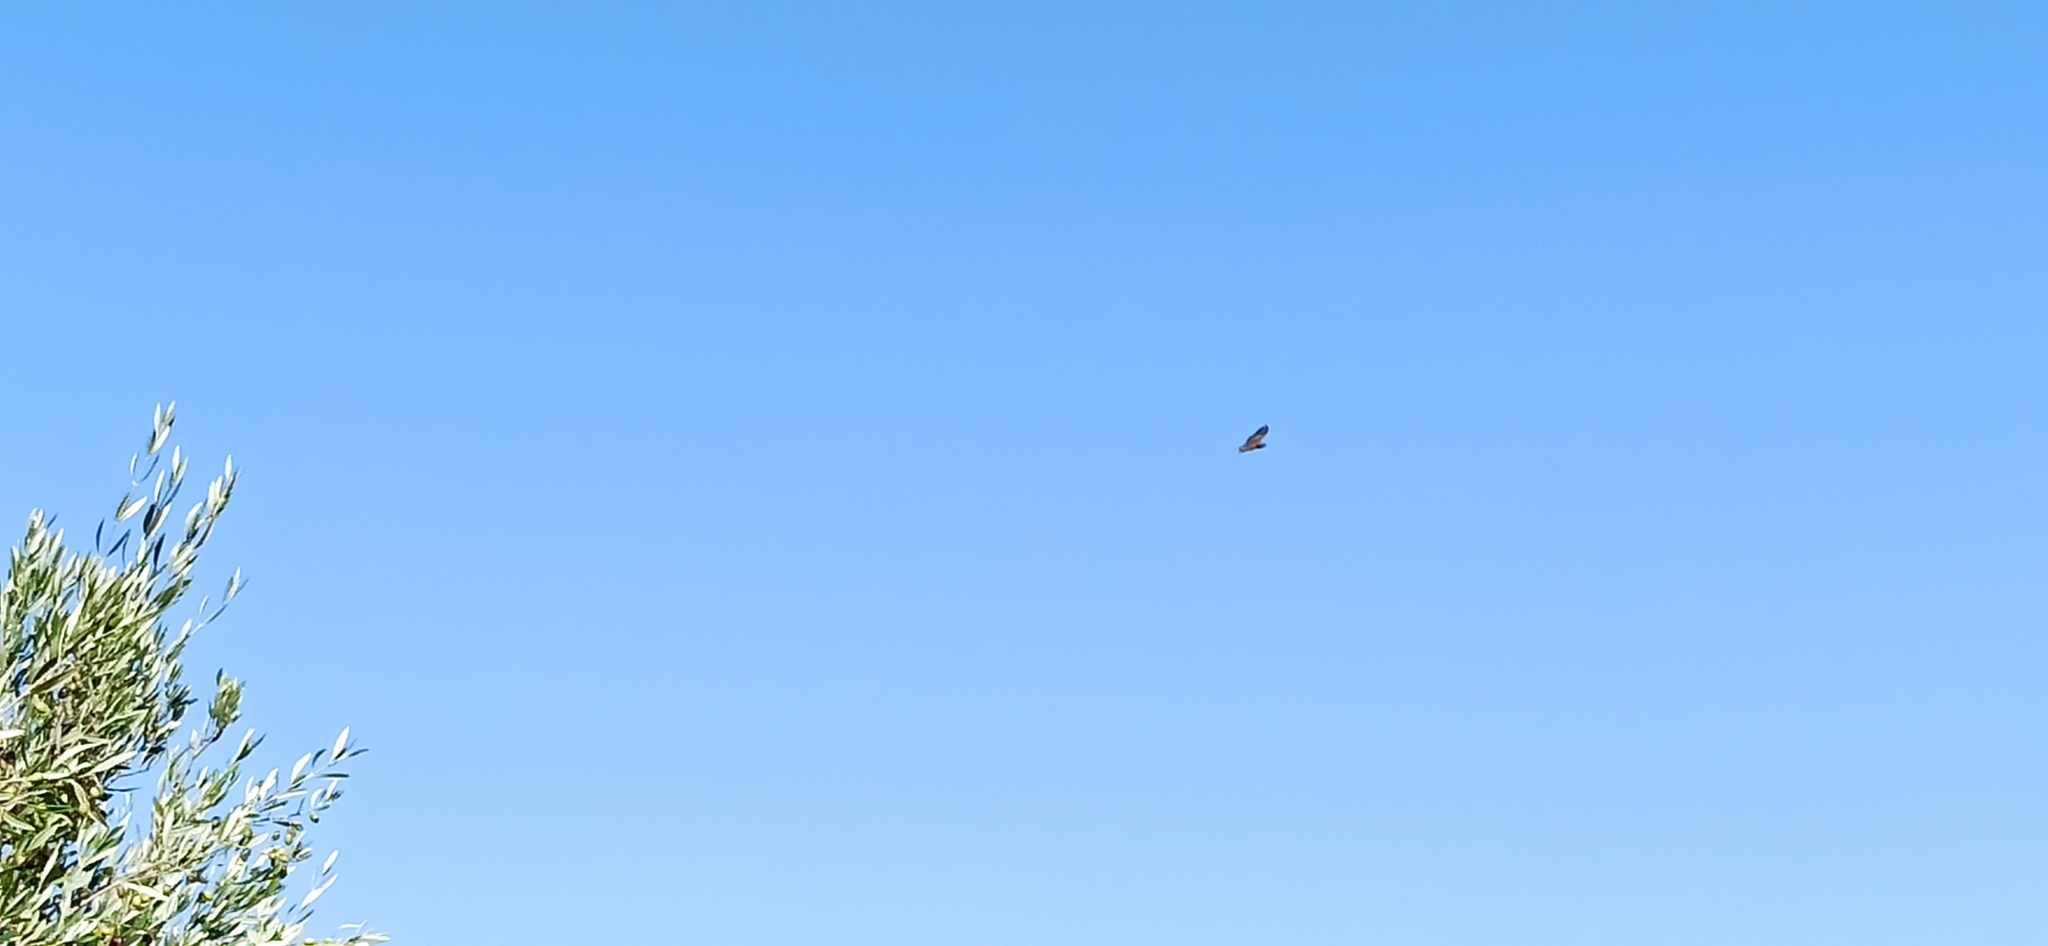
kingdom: Animalia
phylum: Chordata
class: Aves
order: Accipitriformes
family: Accipitridae
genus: Buteo
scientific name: Buteo buteo
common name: Common buzzard
